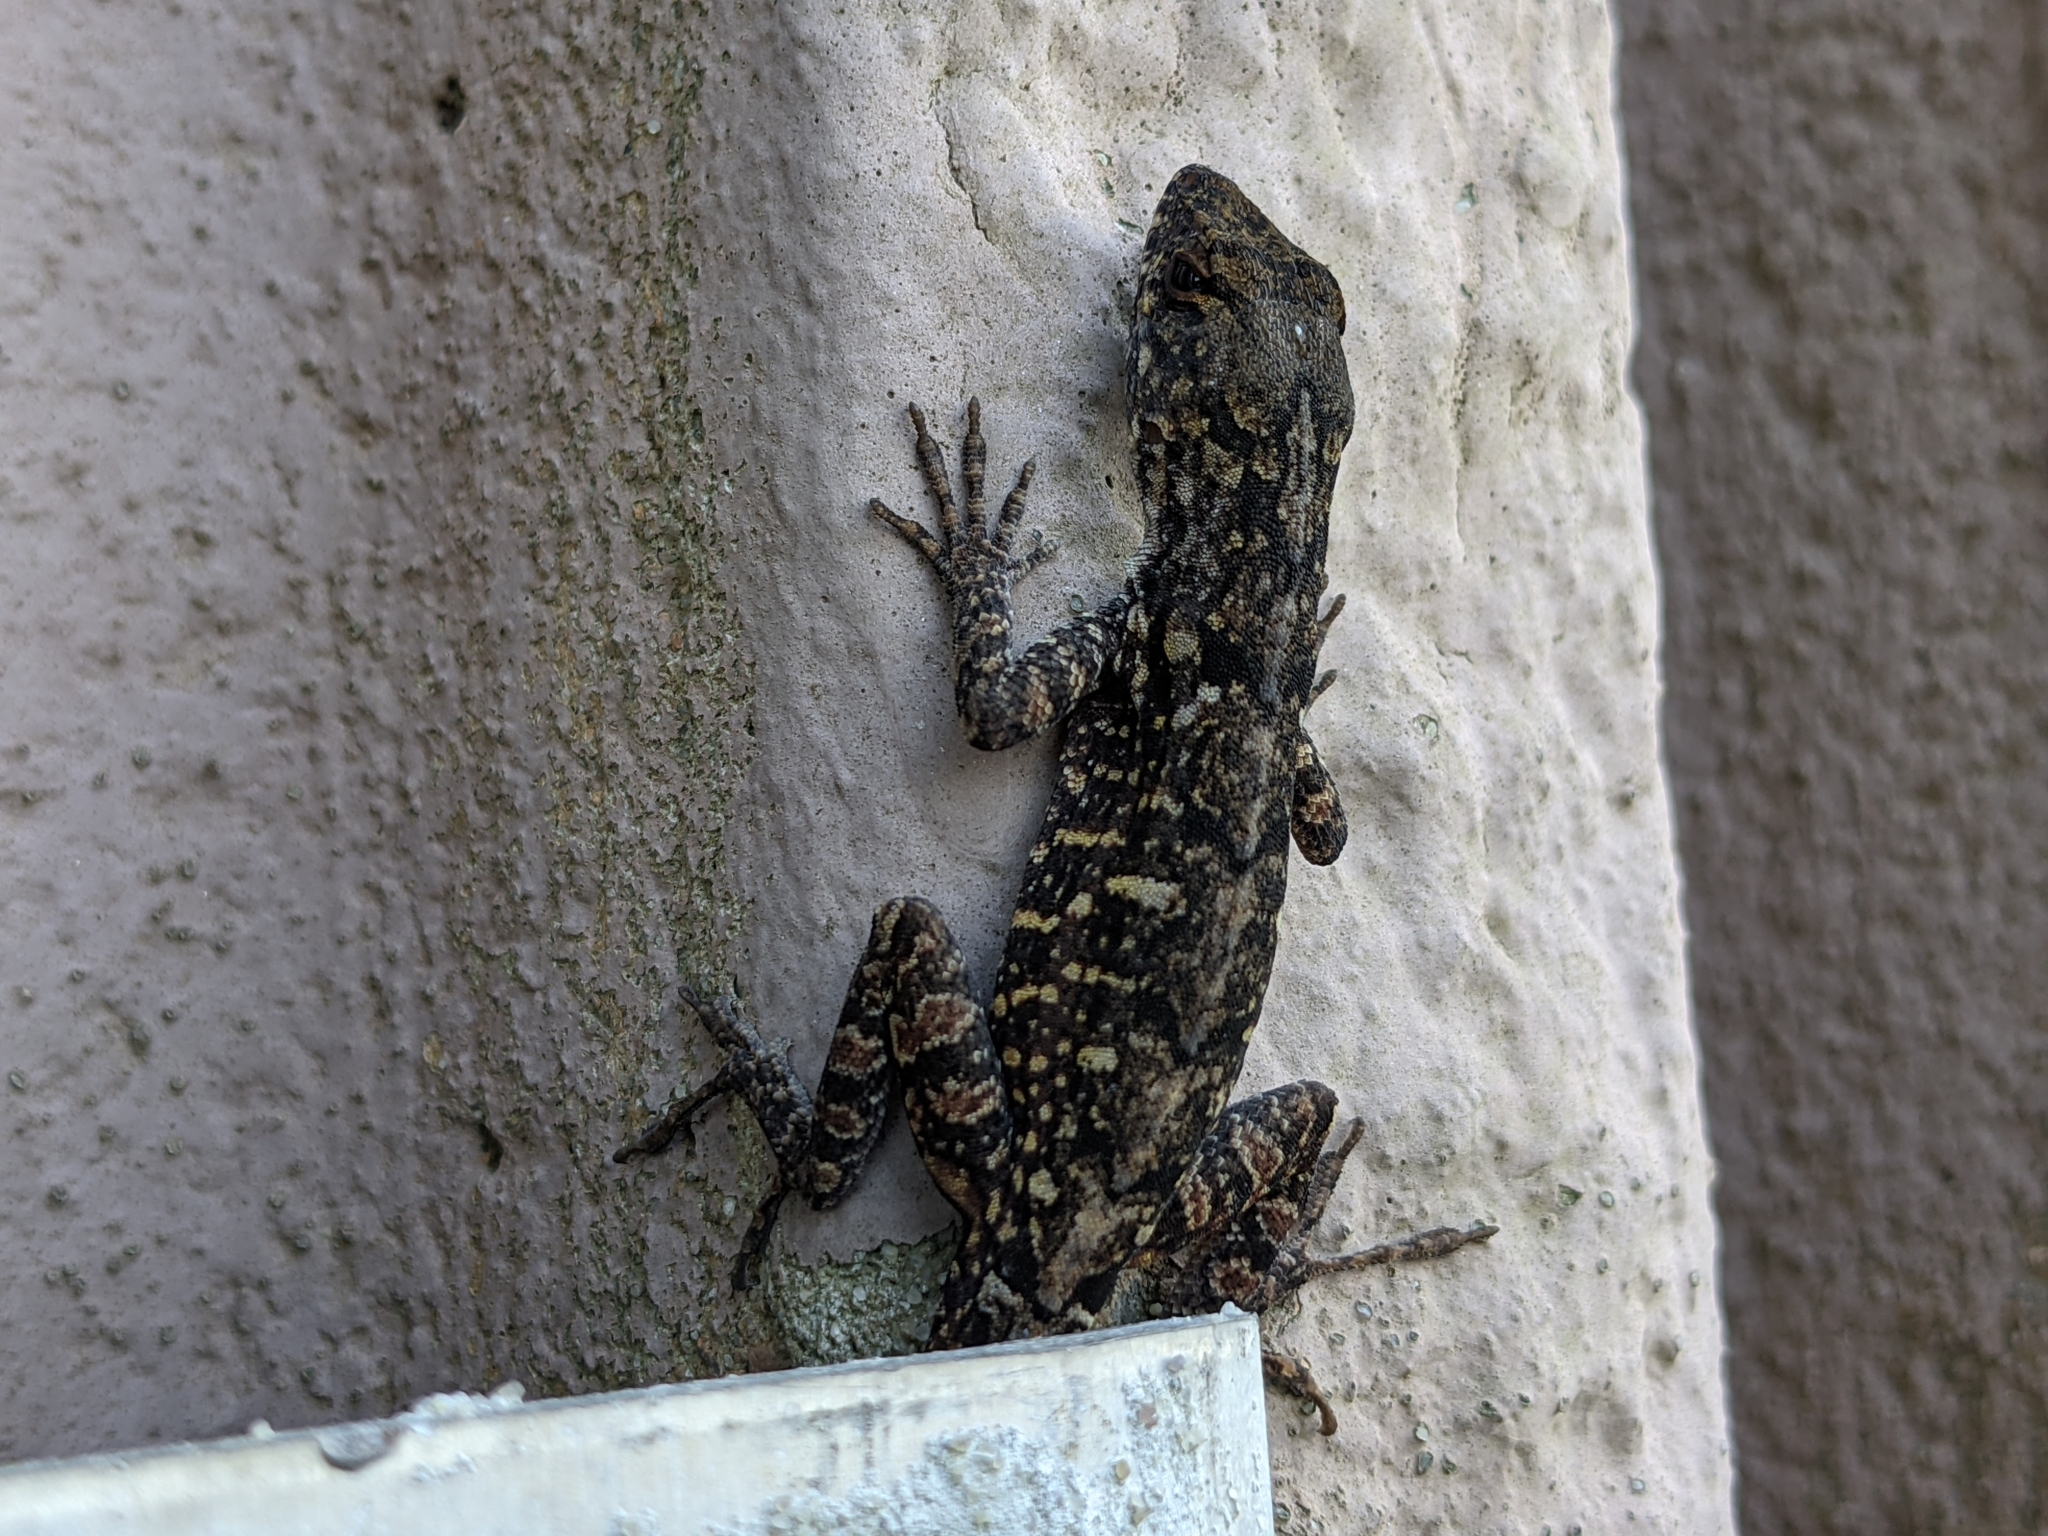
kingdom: Animalia
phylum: Chordata
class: Squamata
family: Dactyloidae
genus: Anolis
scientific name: Anolis sagrei
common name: Brown anole
